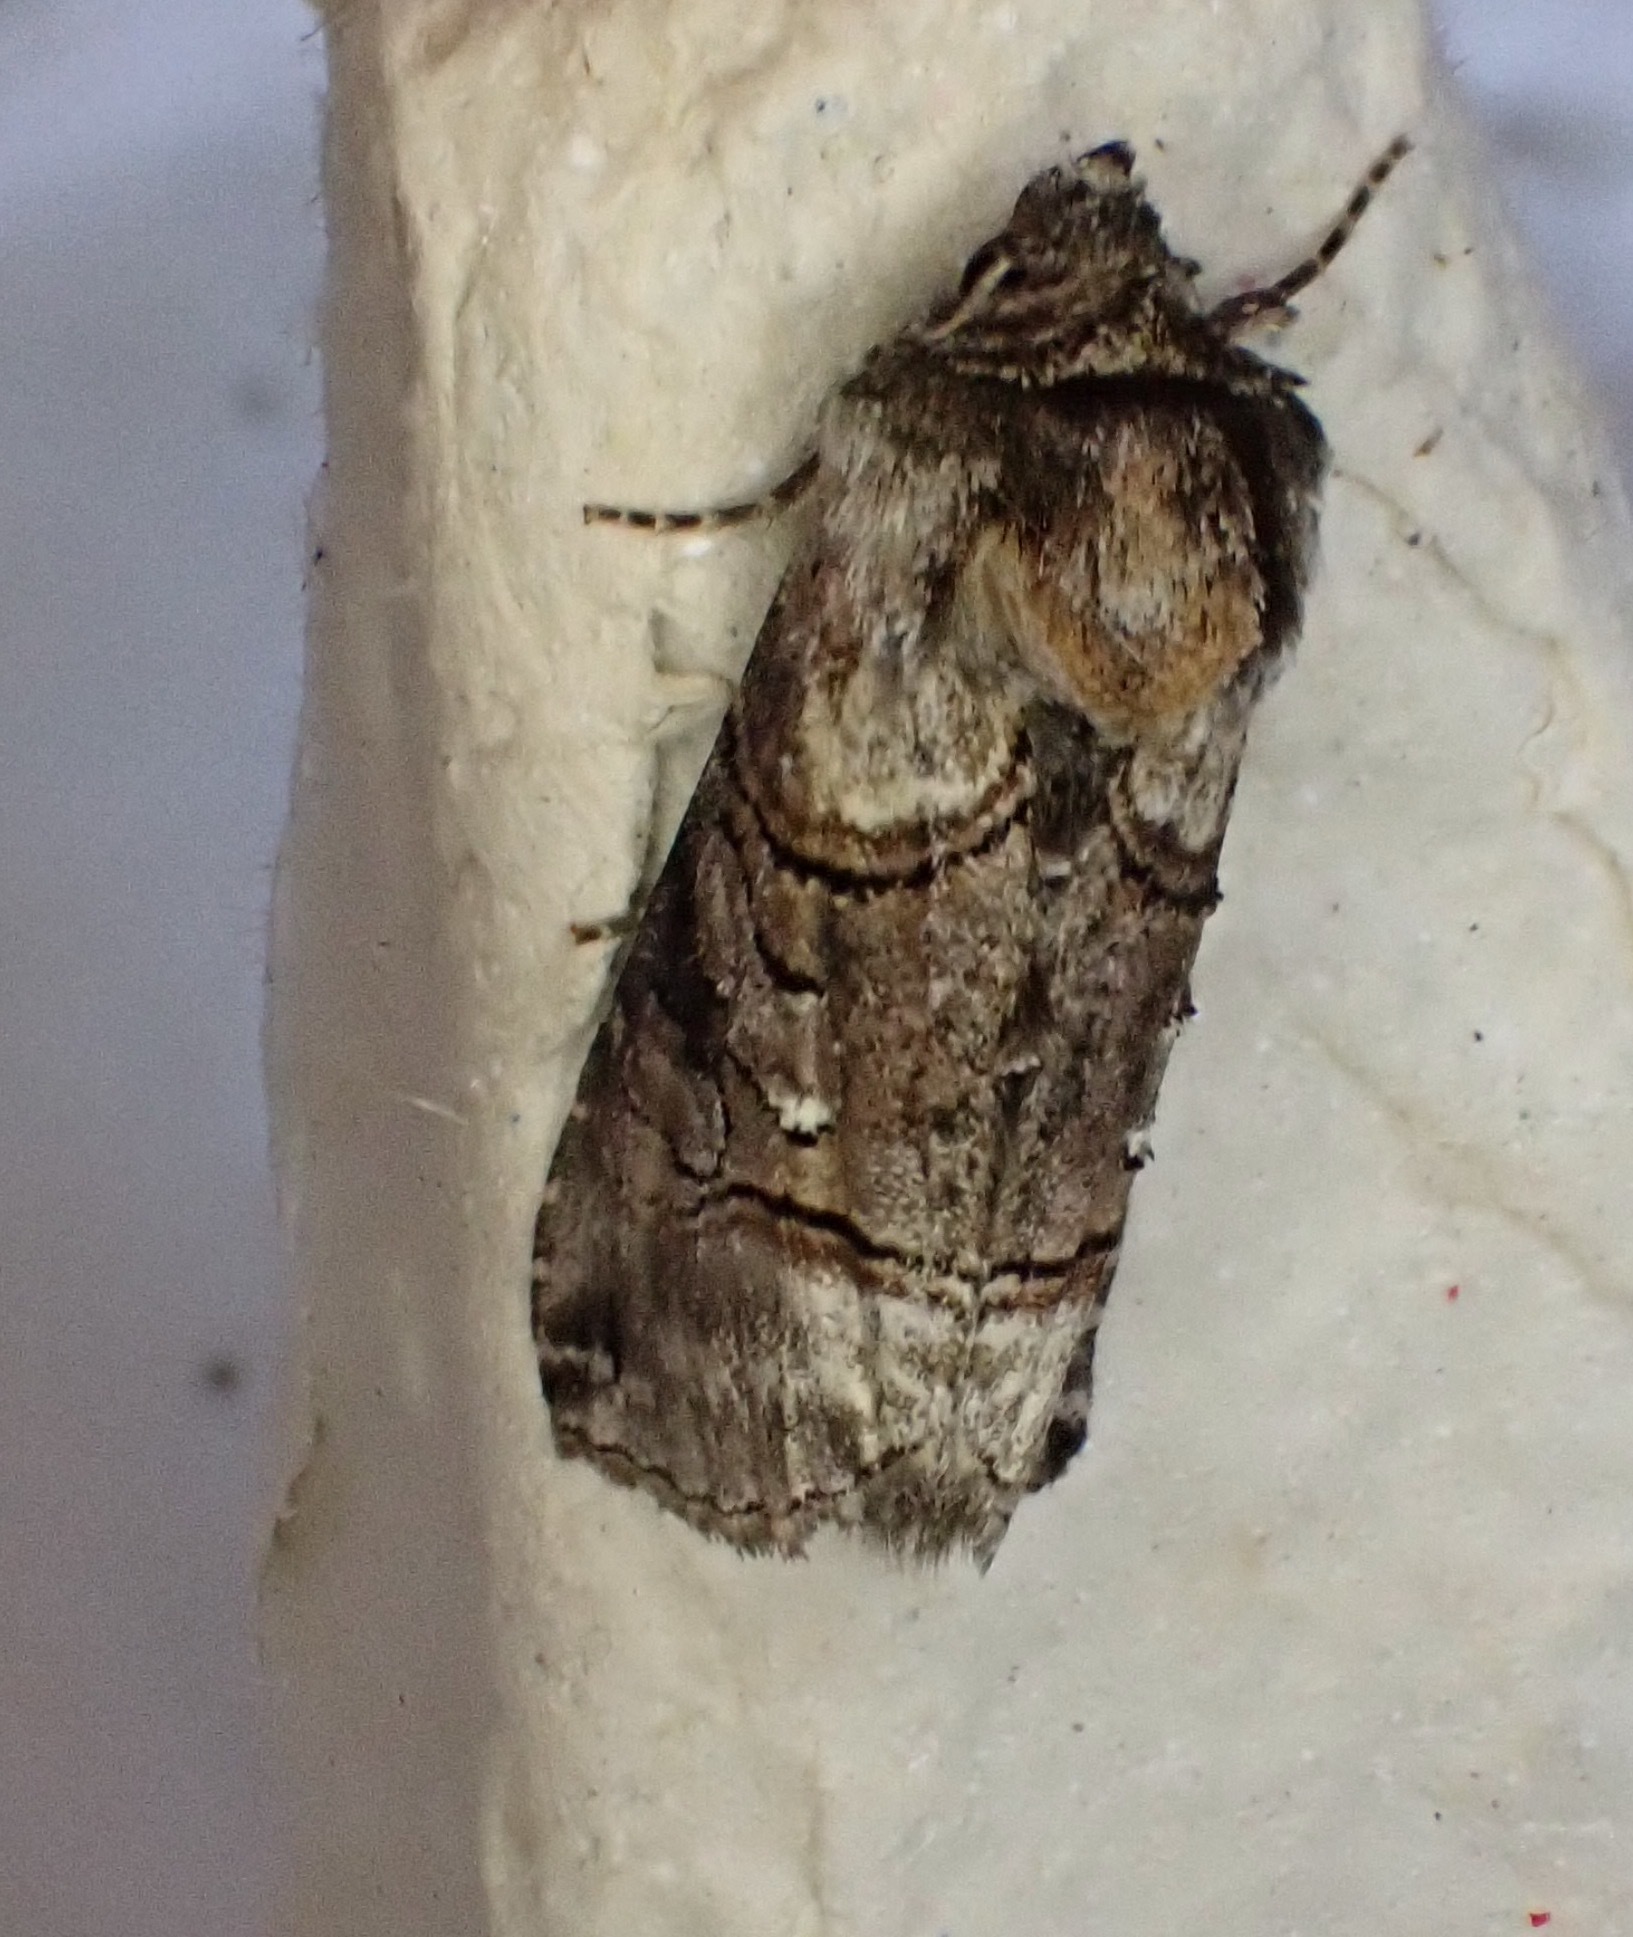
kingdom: Animalia
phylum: Arthropoda
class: Insecta
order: Lepidoptera
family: Noctuidae
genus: Abrostola
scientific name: Abrostola tripartita
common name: Spectacle
